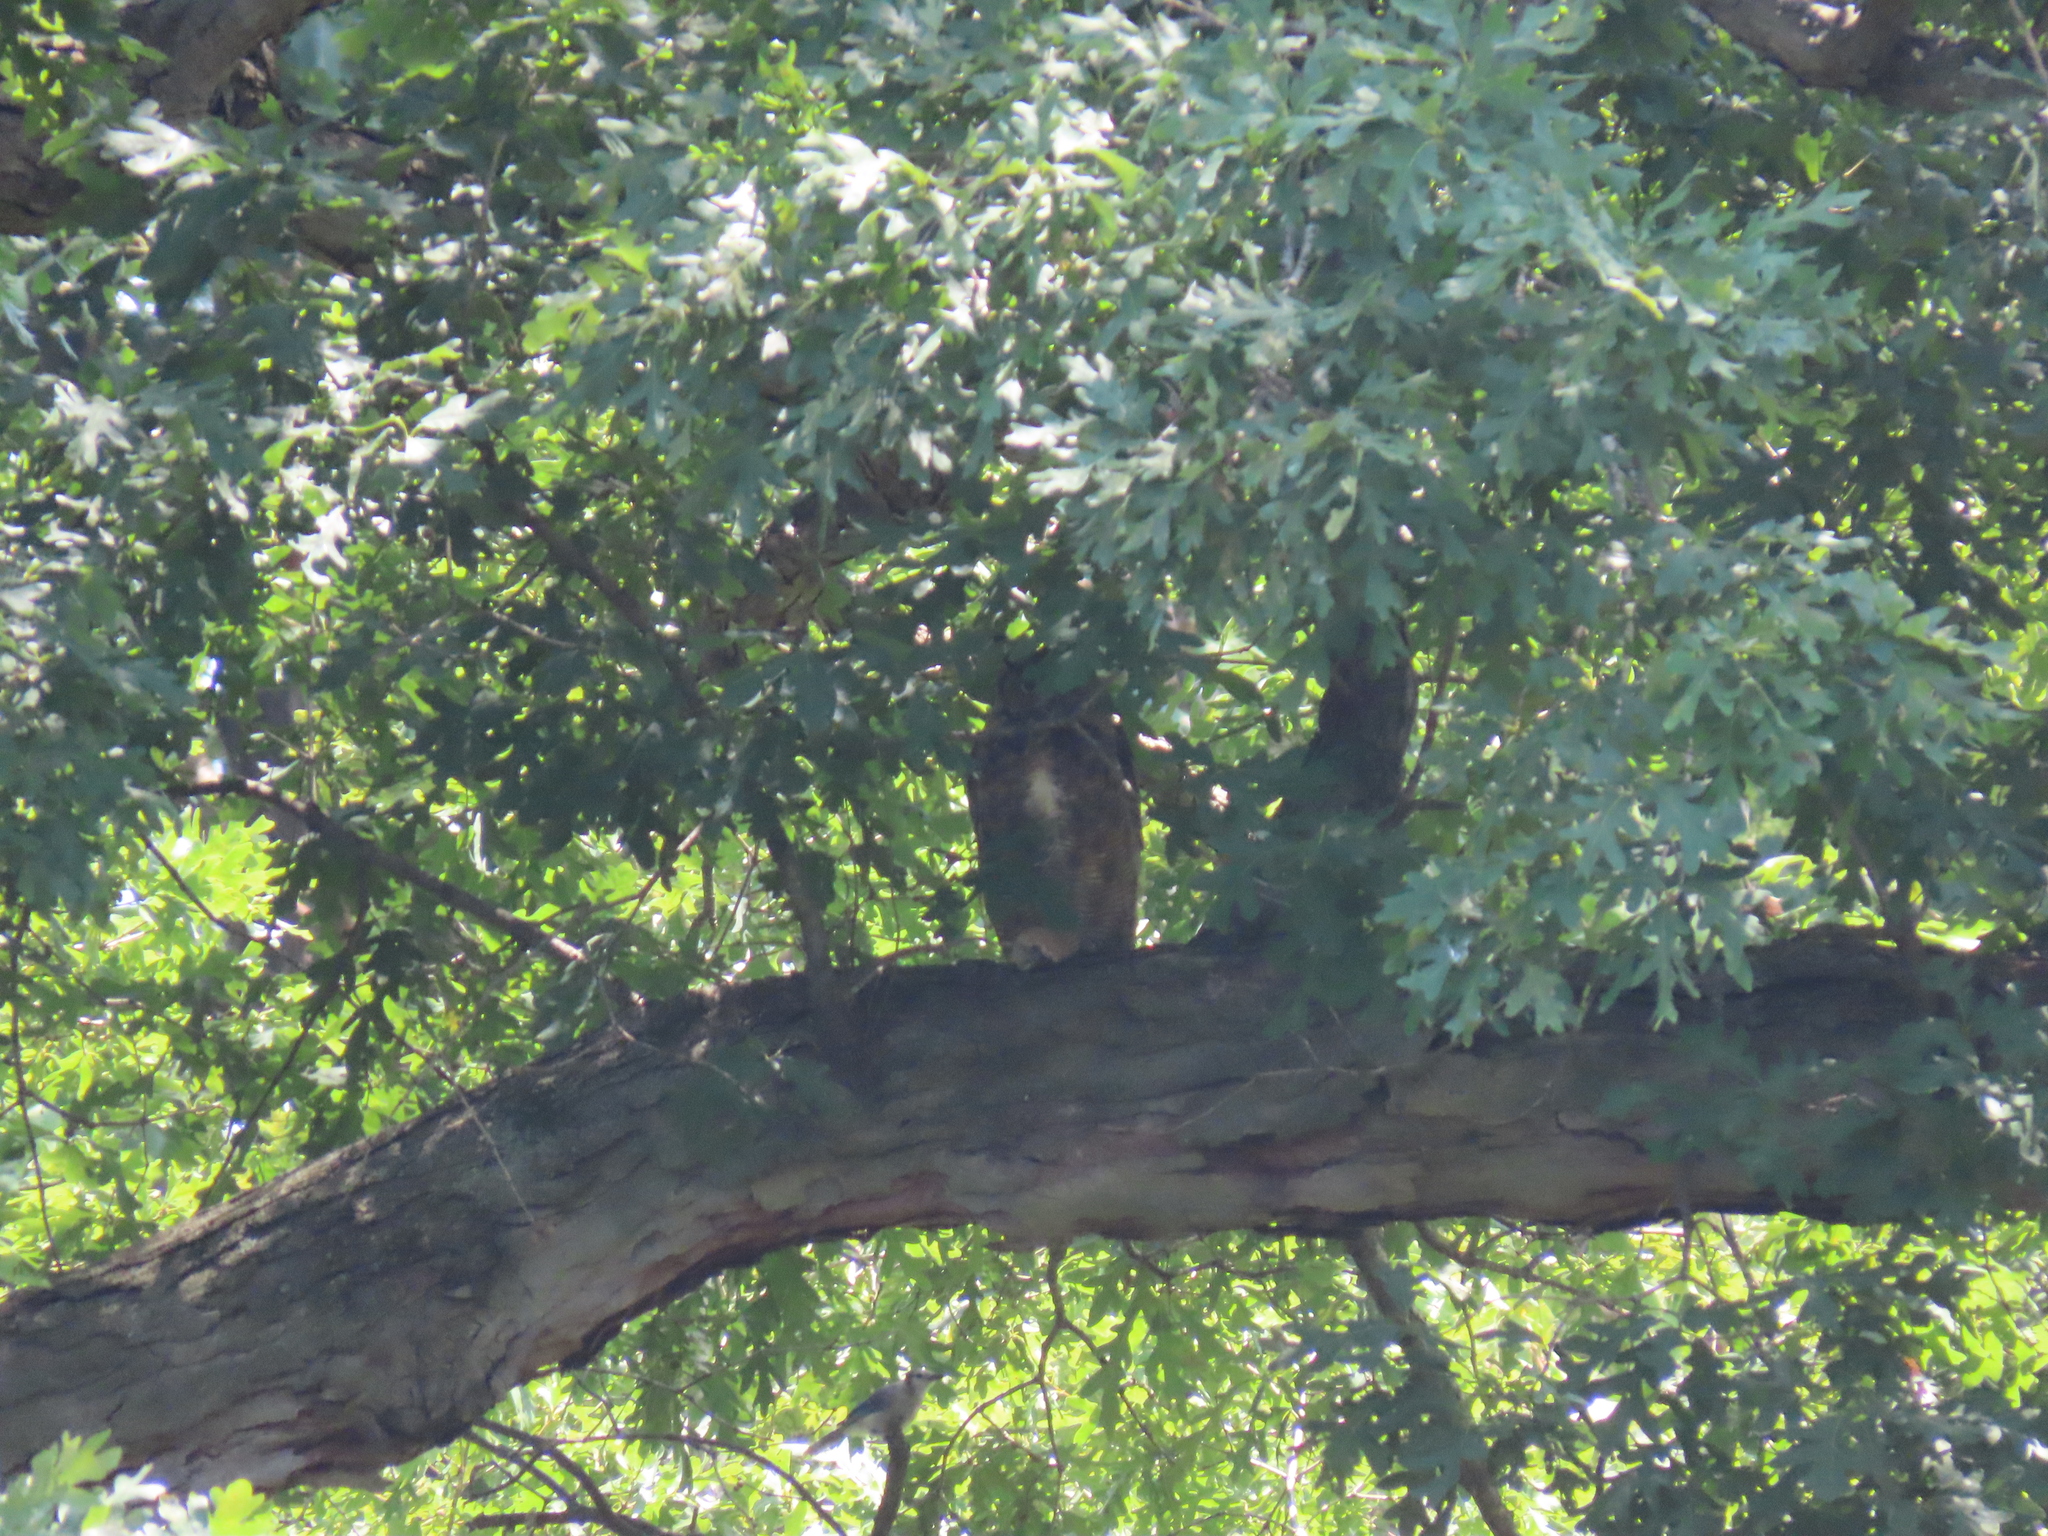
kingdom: Animalia
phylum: Chordata
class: Aves
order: Strigiformes
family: Strigidae
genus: Bubo
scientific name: Bubo virginianus
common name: Great horned owl
